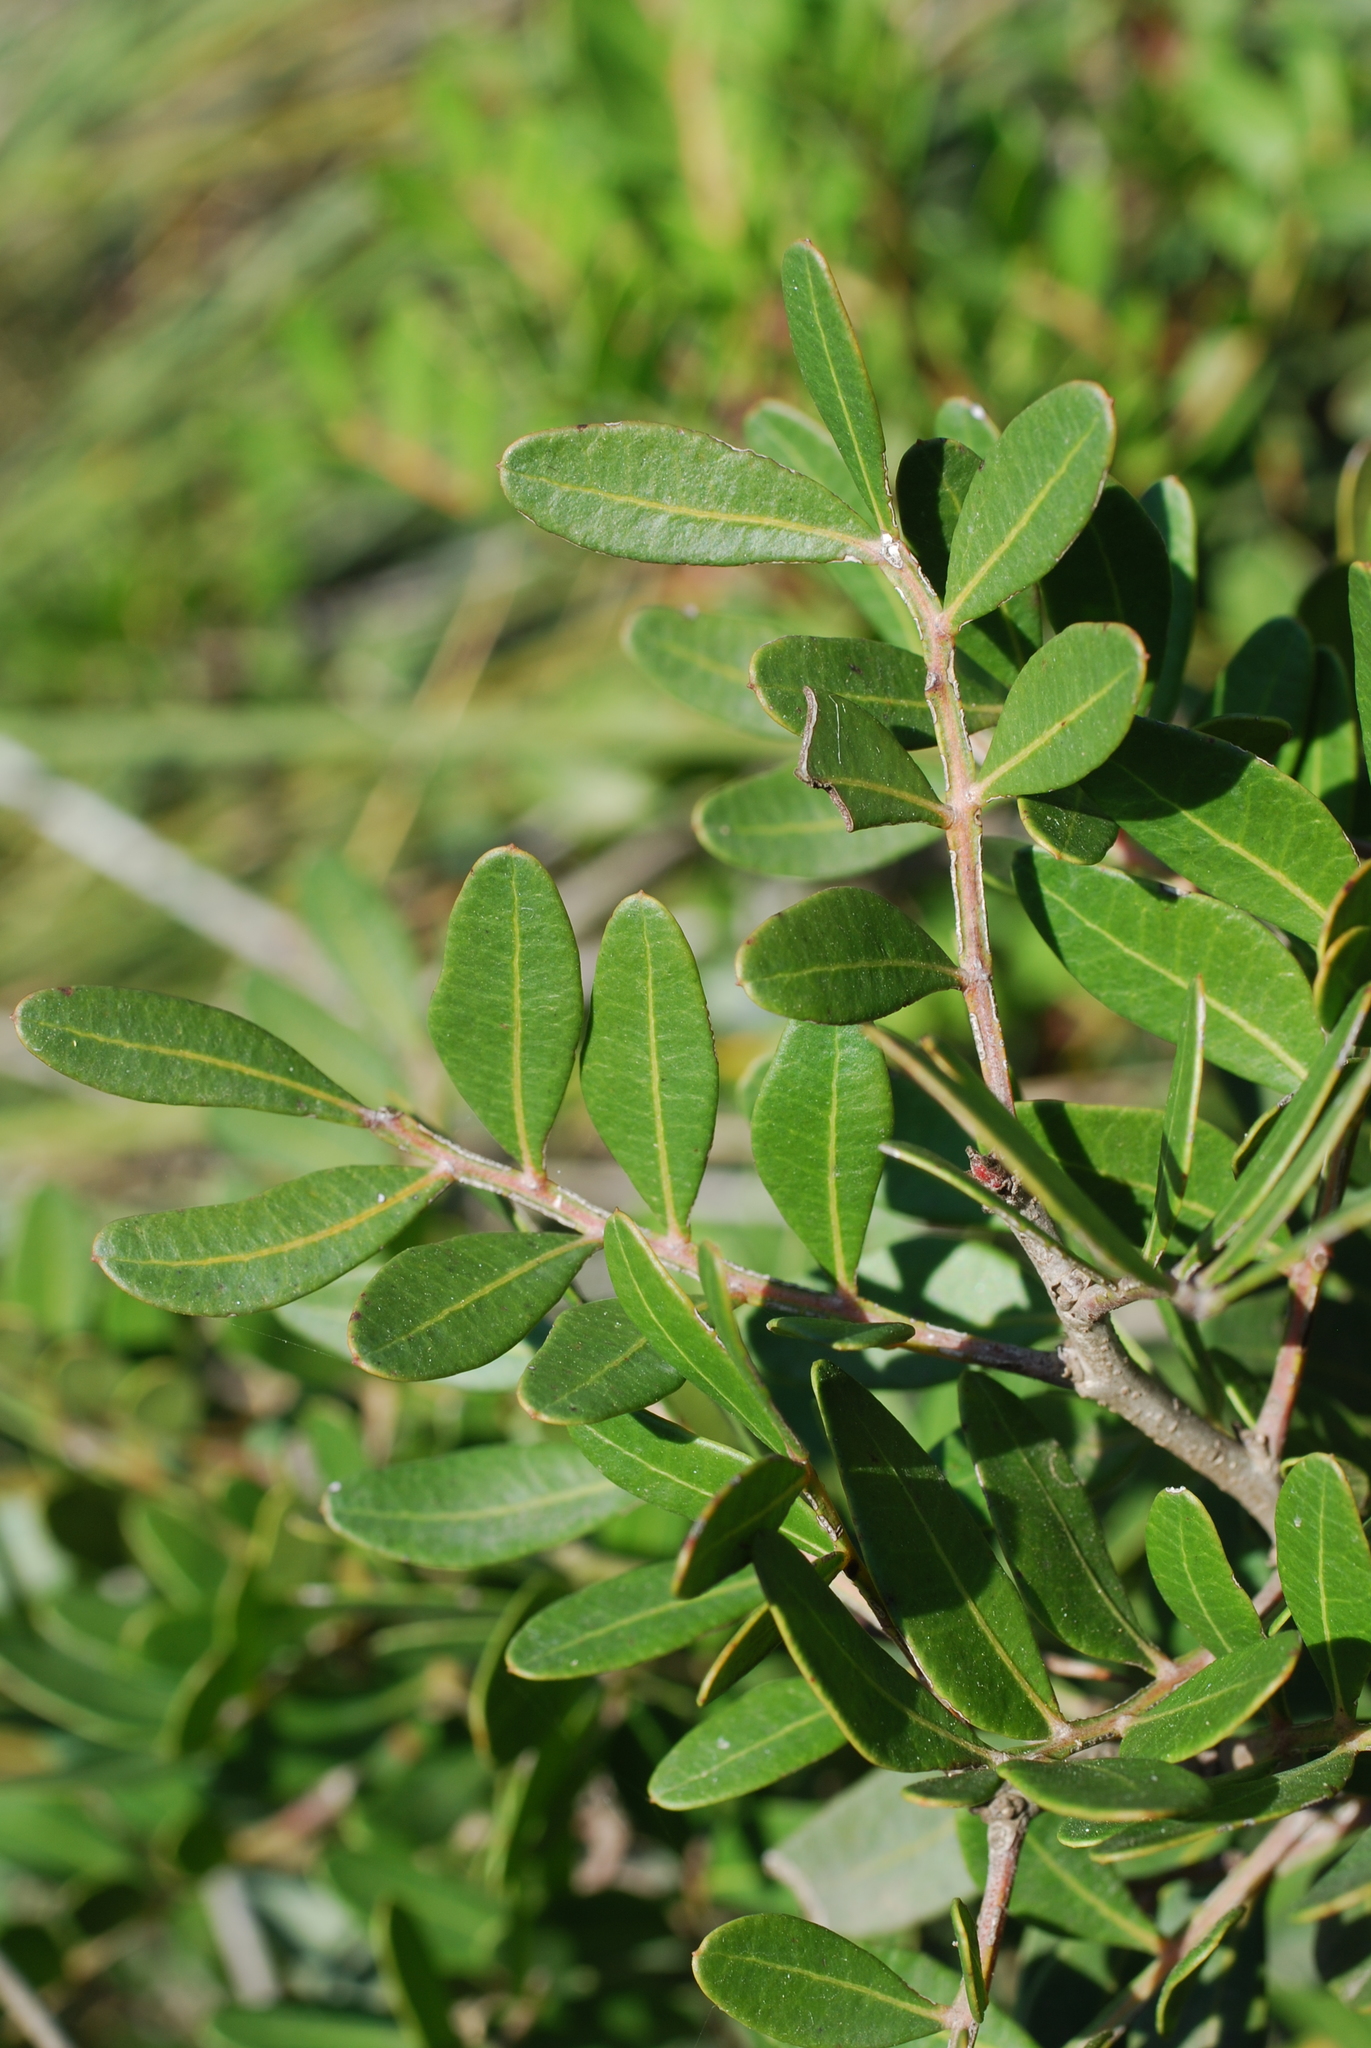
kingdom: Plantae
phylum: Tracheophyta
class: Magnoliopsida
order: Sapindales
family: Anacardiaceae
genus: Pistacia
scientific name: Pistacia lentiscus
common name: Lentisk
